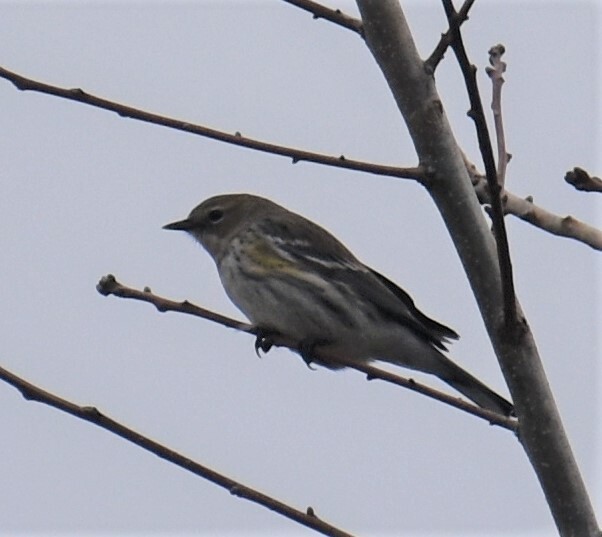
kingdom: Animalia
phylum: Chordata
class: Aves
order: Passeriformes
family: Parulidae
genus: Setophaga
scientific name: Setophaga coronata
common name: Myrtle warbler
